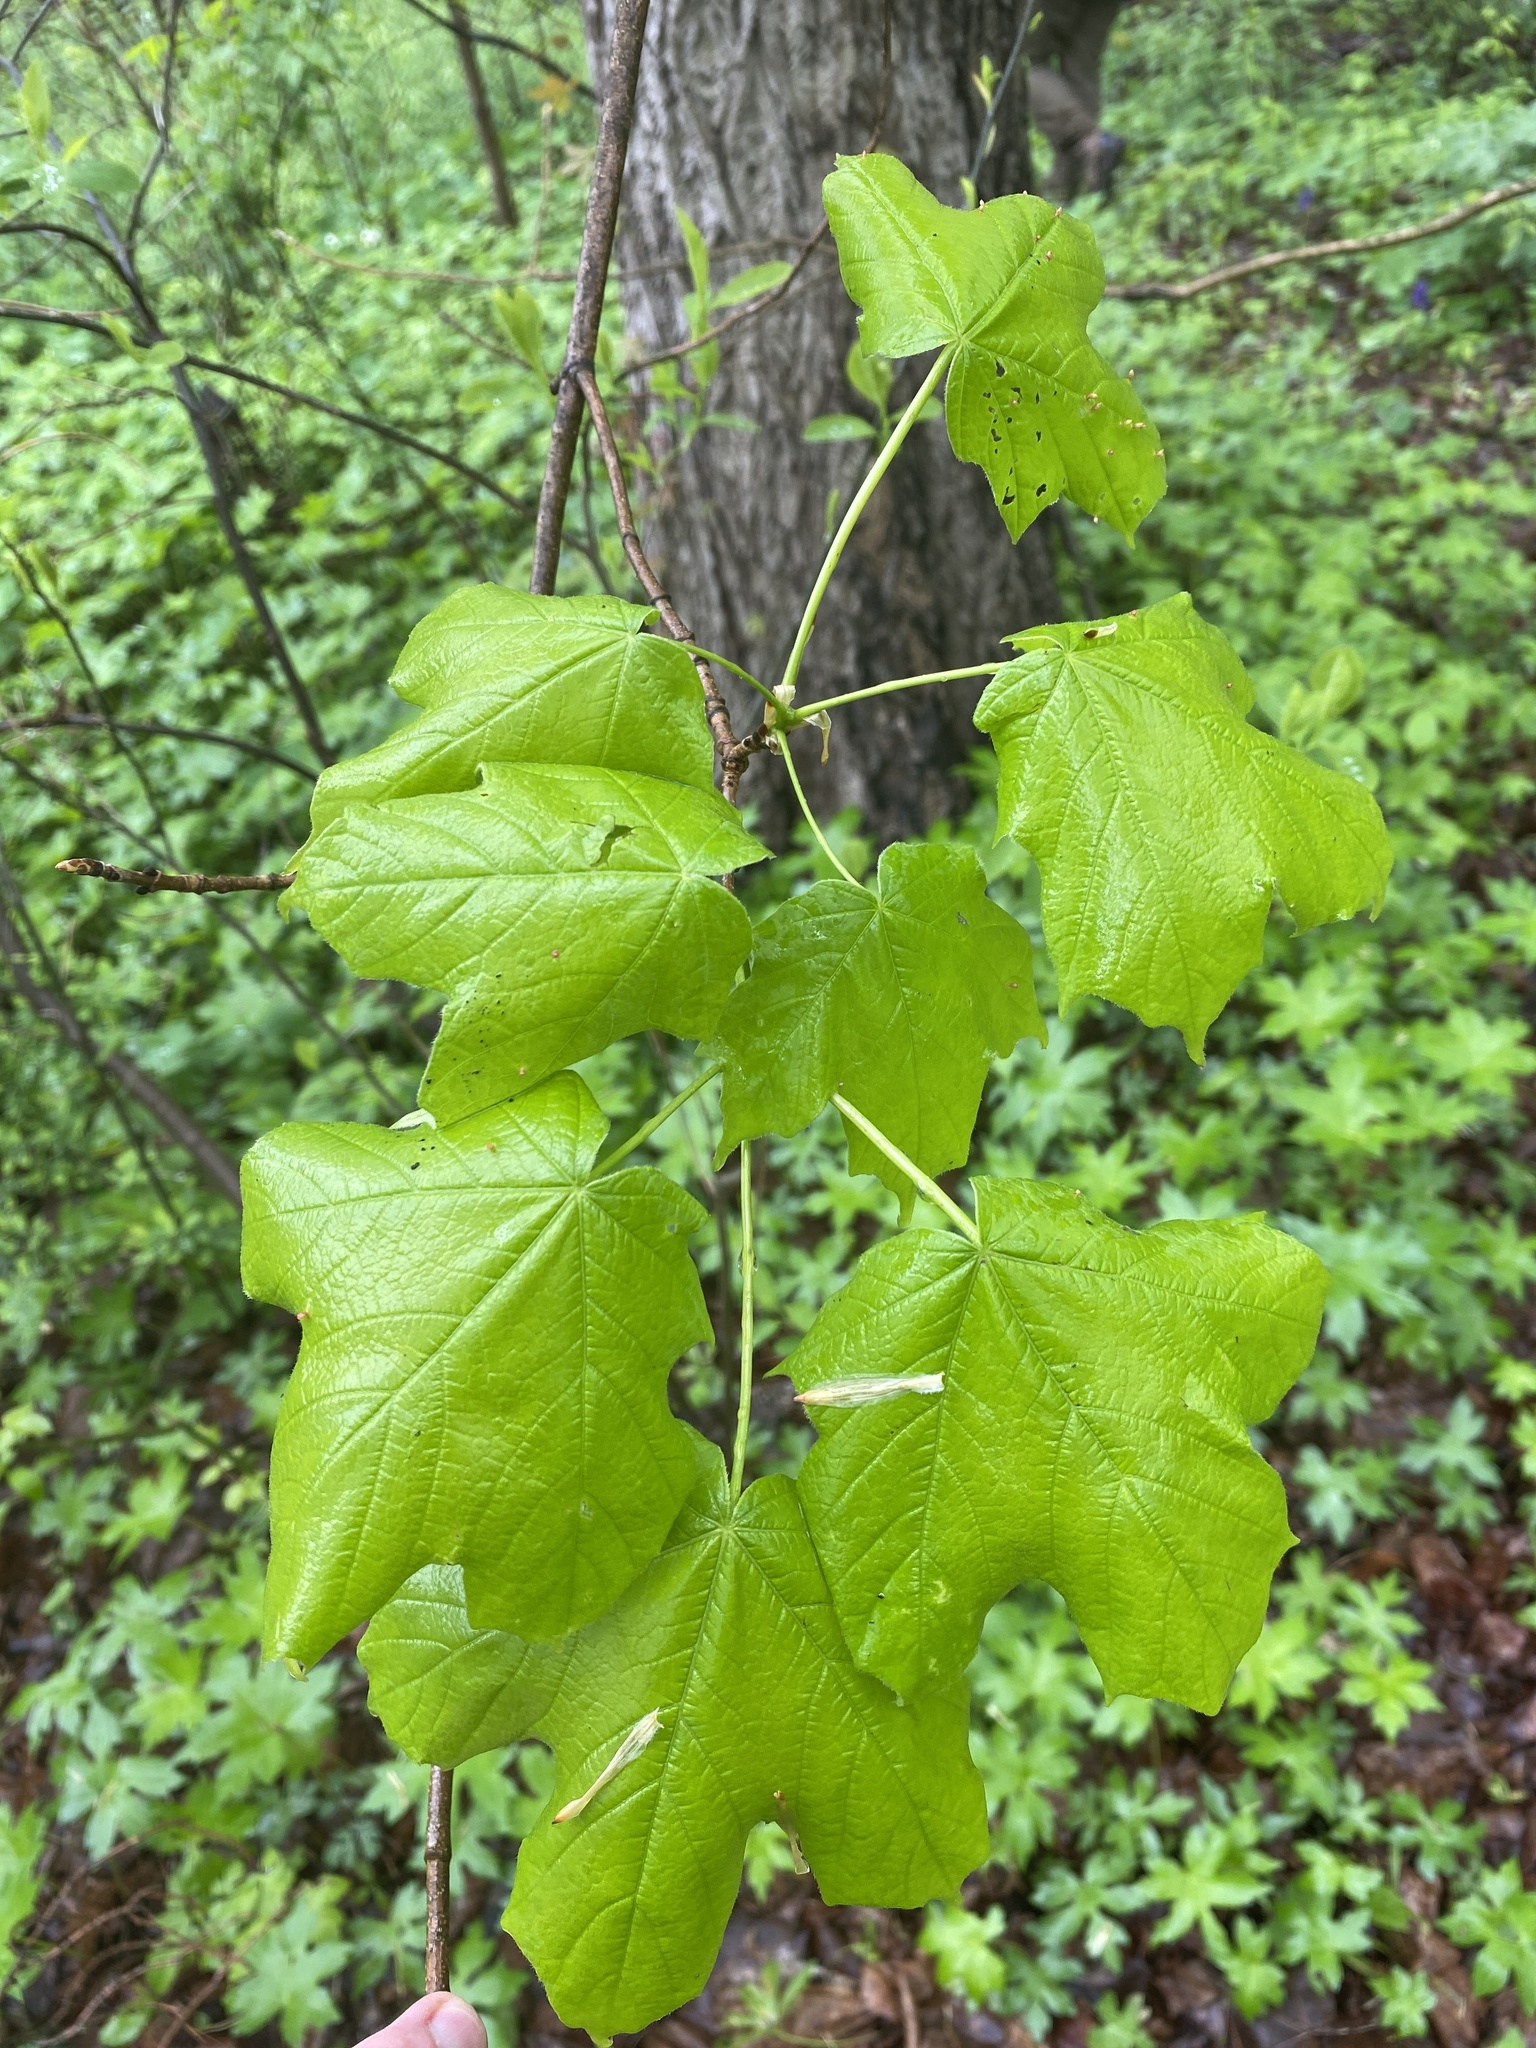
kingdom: Plantae
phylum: Tracheophyta
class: Magnoliopsida
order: Sapindales
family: Sapindaceae
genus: Acer
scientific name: Acer nigrum
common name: Black maple
